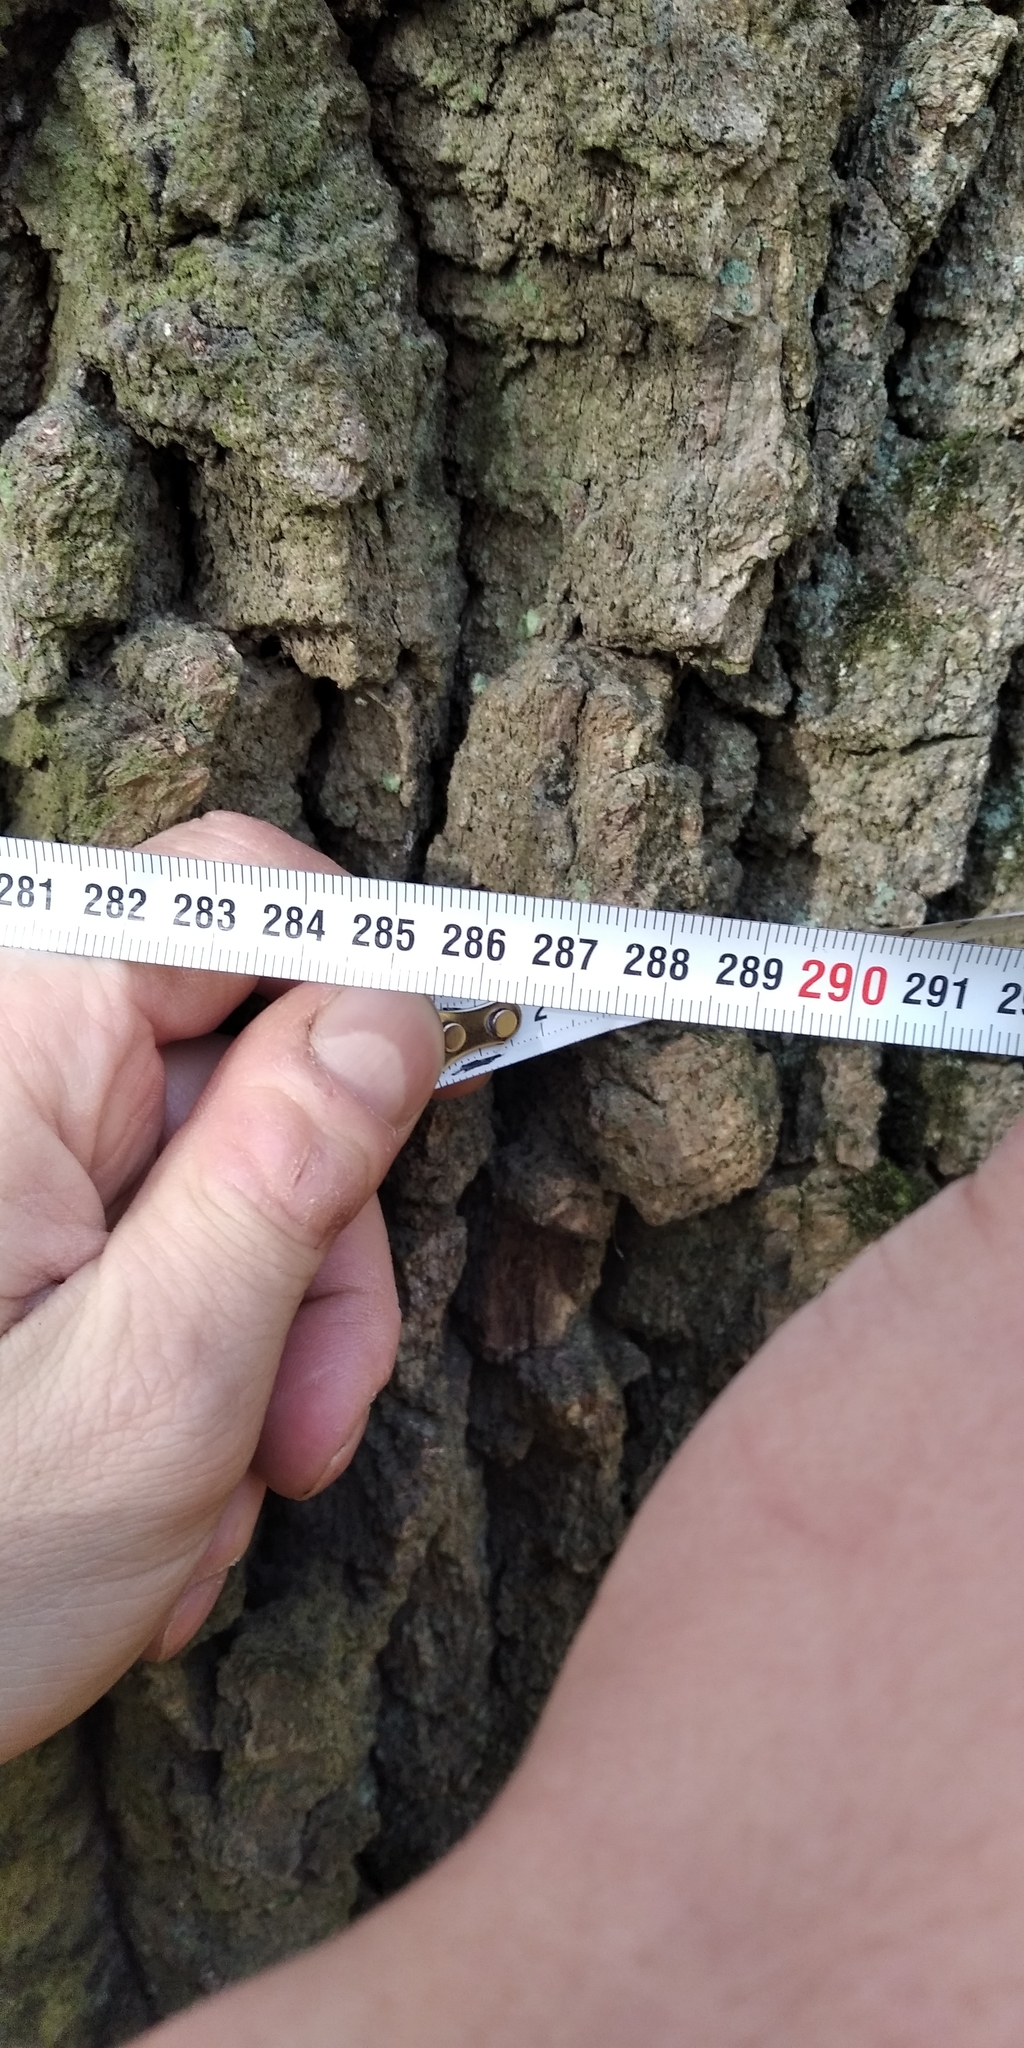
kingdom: Plantae
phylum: Tracheophyta
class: Magnoliopsida
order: Fagales
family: Fagaceae
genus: Quercus
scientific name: Quercus robur
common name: Pedunculate oak
